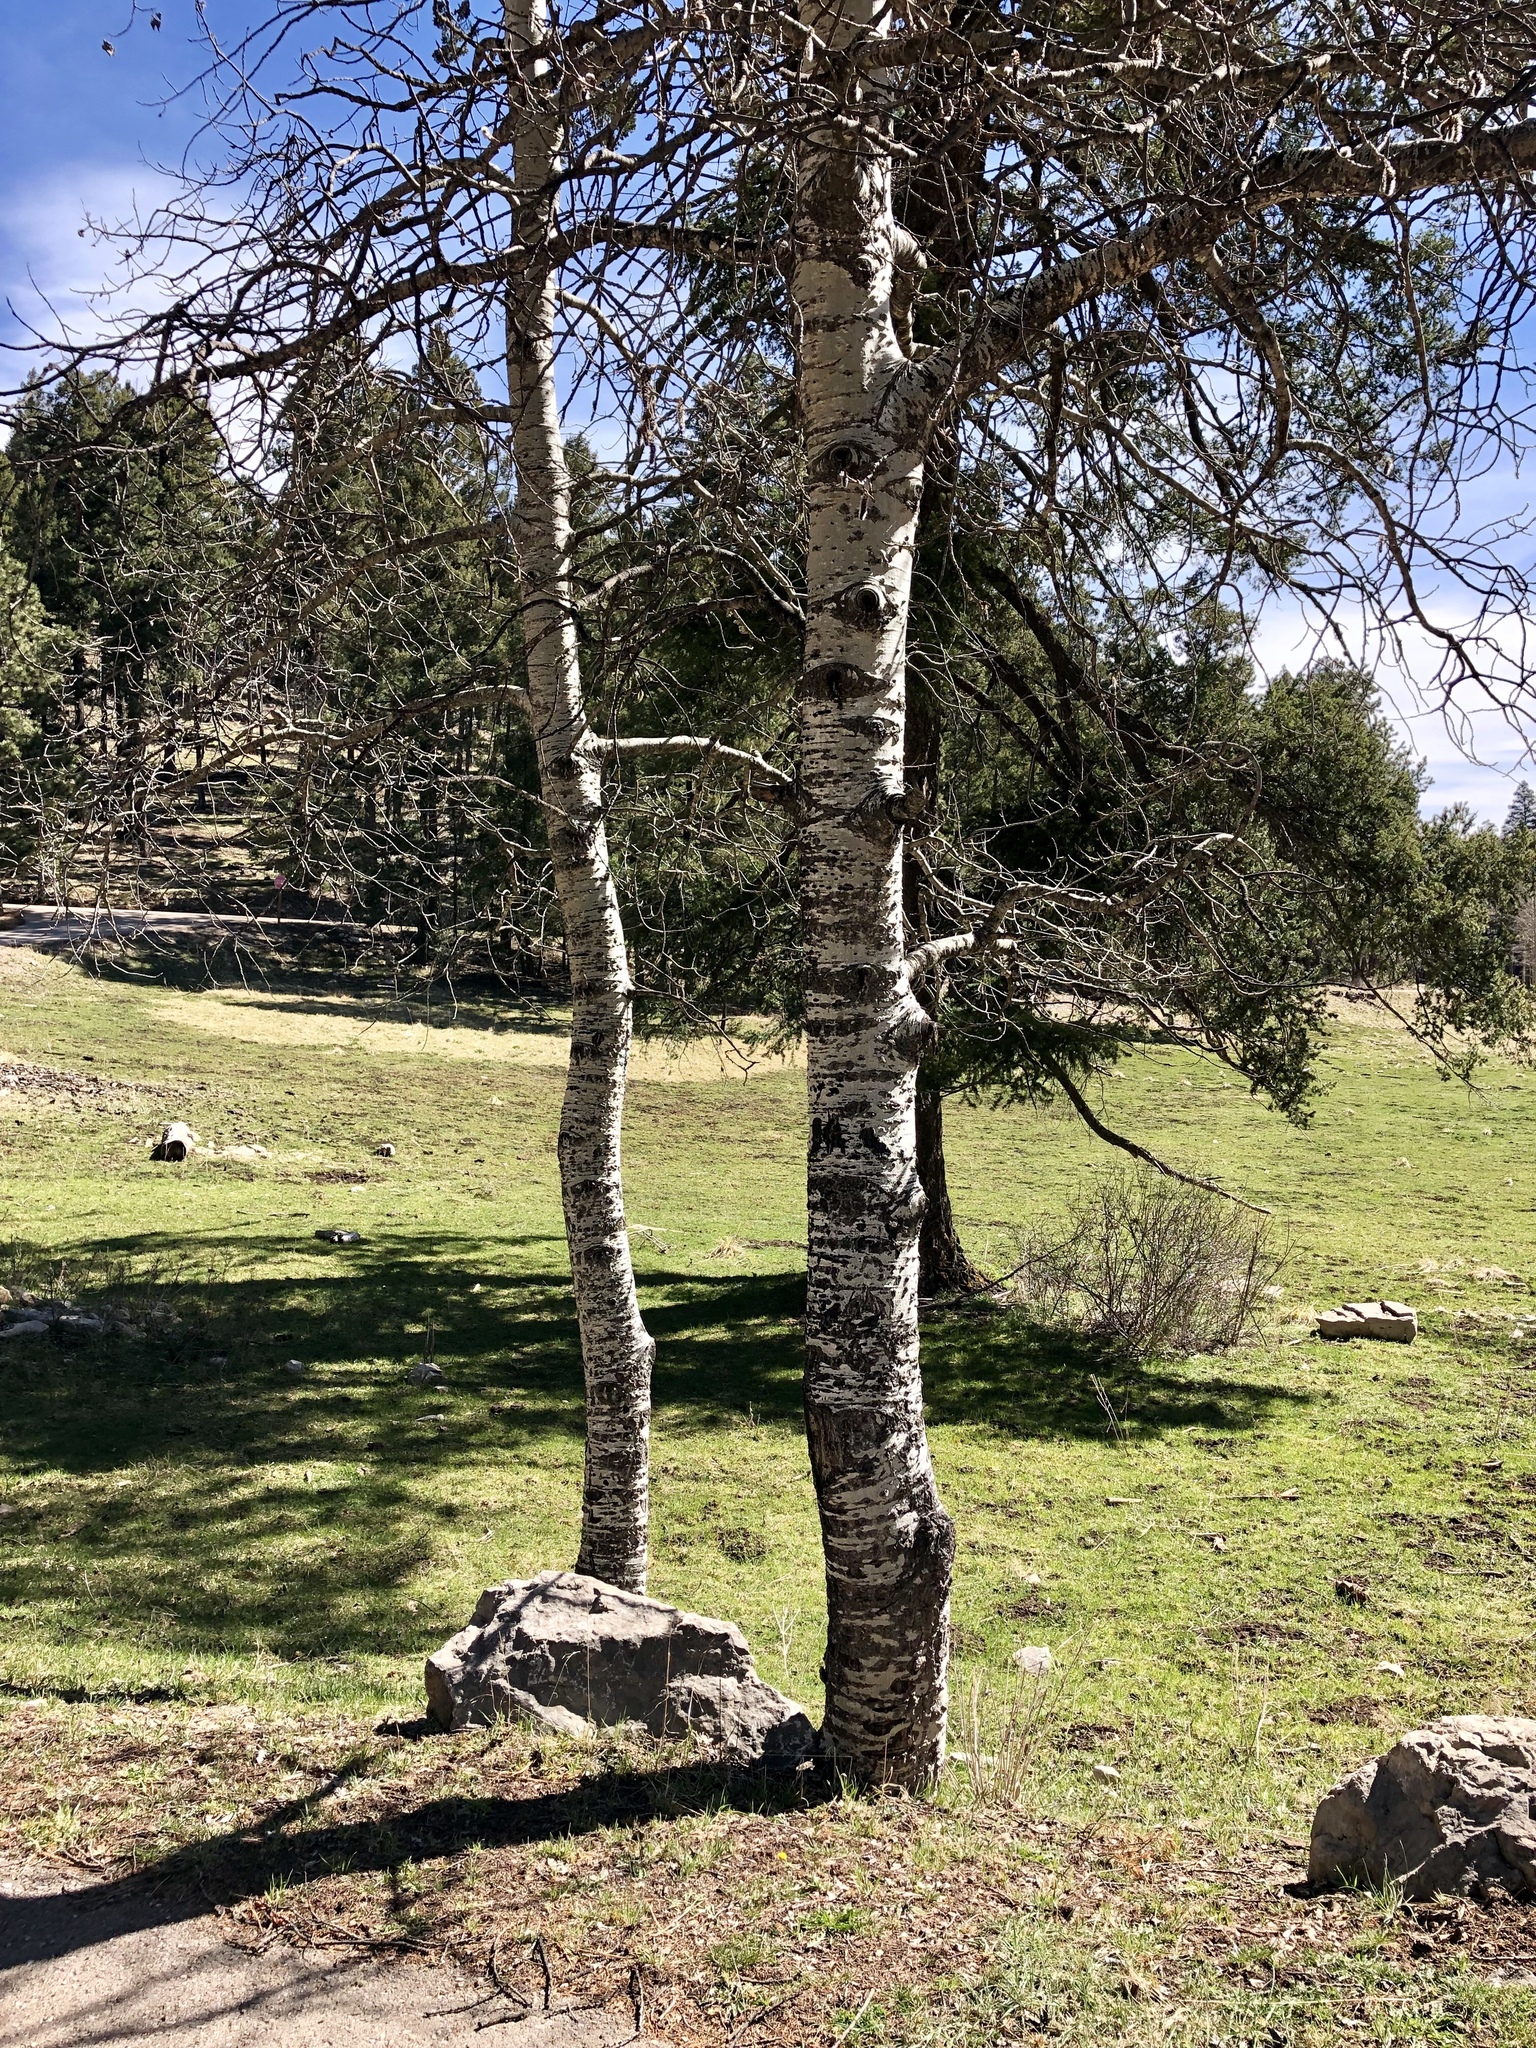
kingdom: Plantae
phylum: Tracheophyta
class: Magnoliopsida
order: Malpighiales
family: Salicaceae
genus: Populus
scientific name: Populus tremuloides
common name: Quaking aspen
